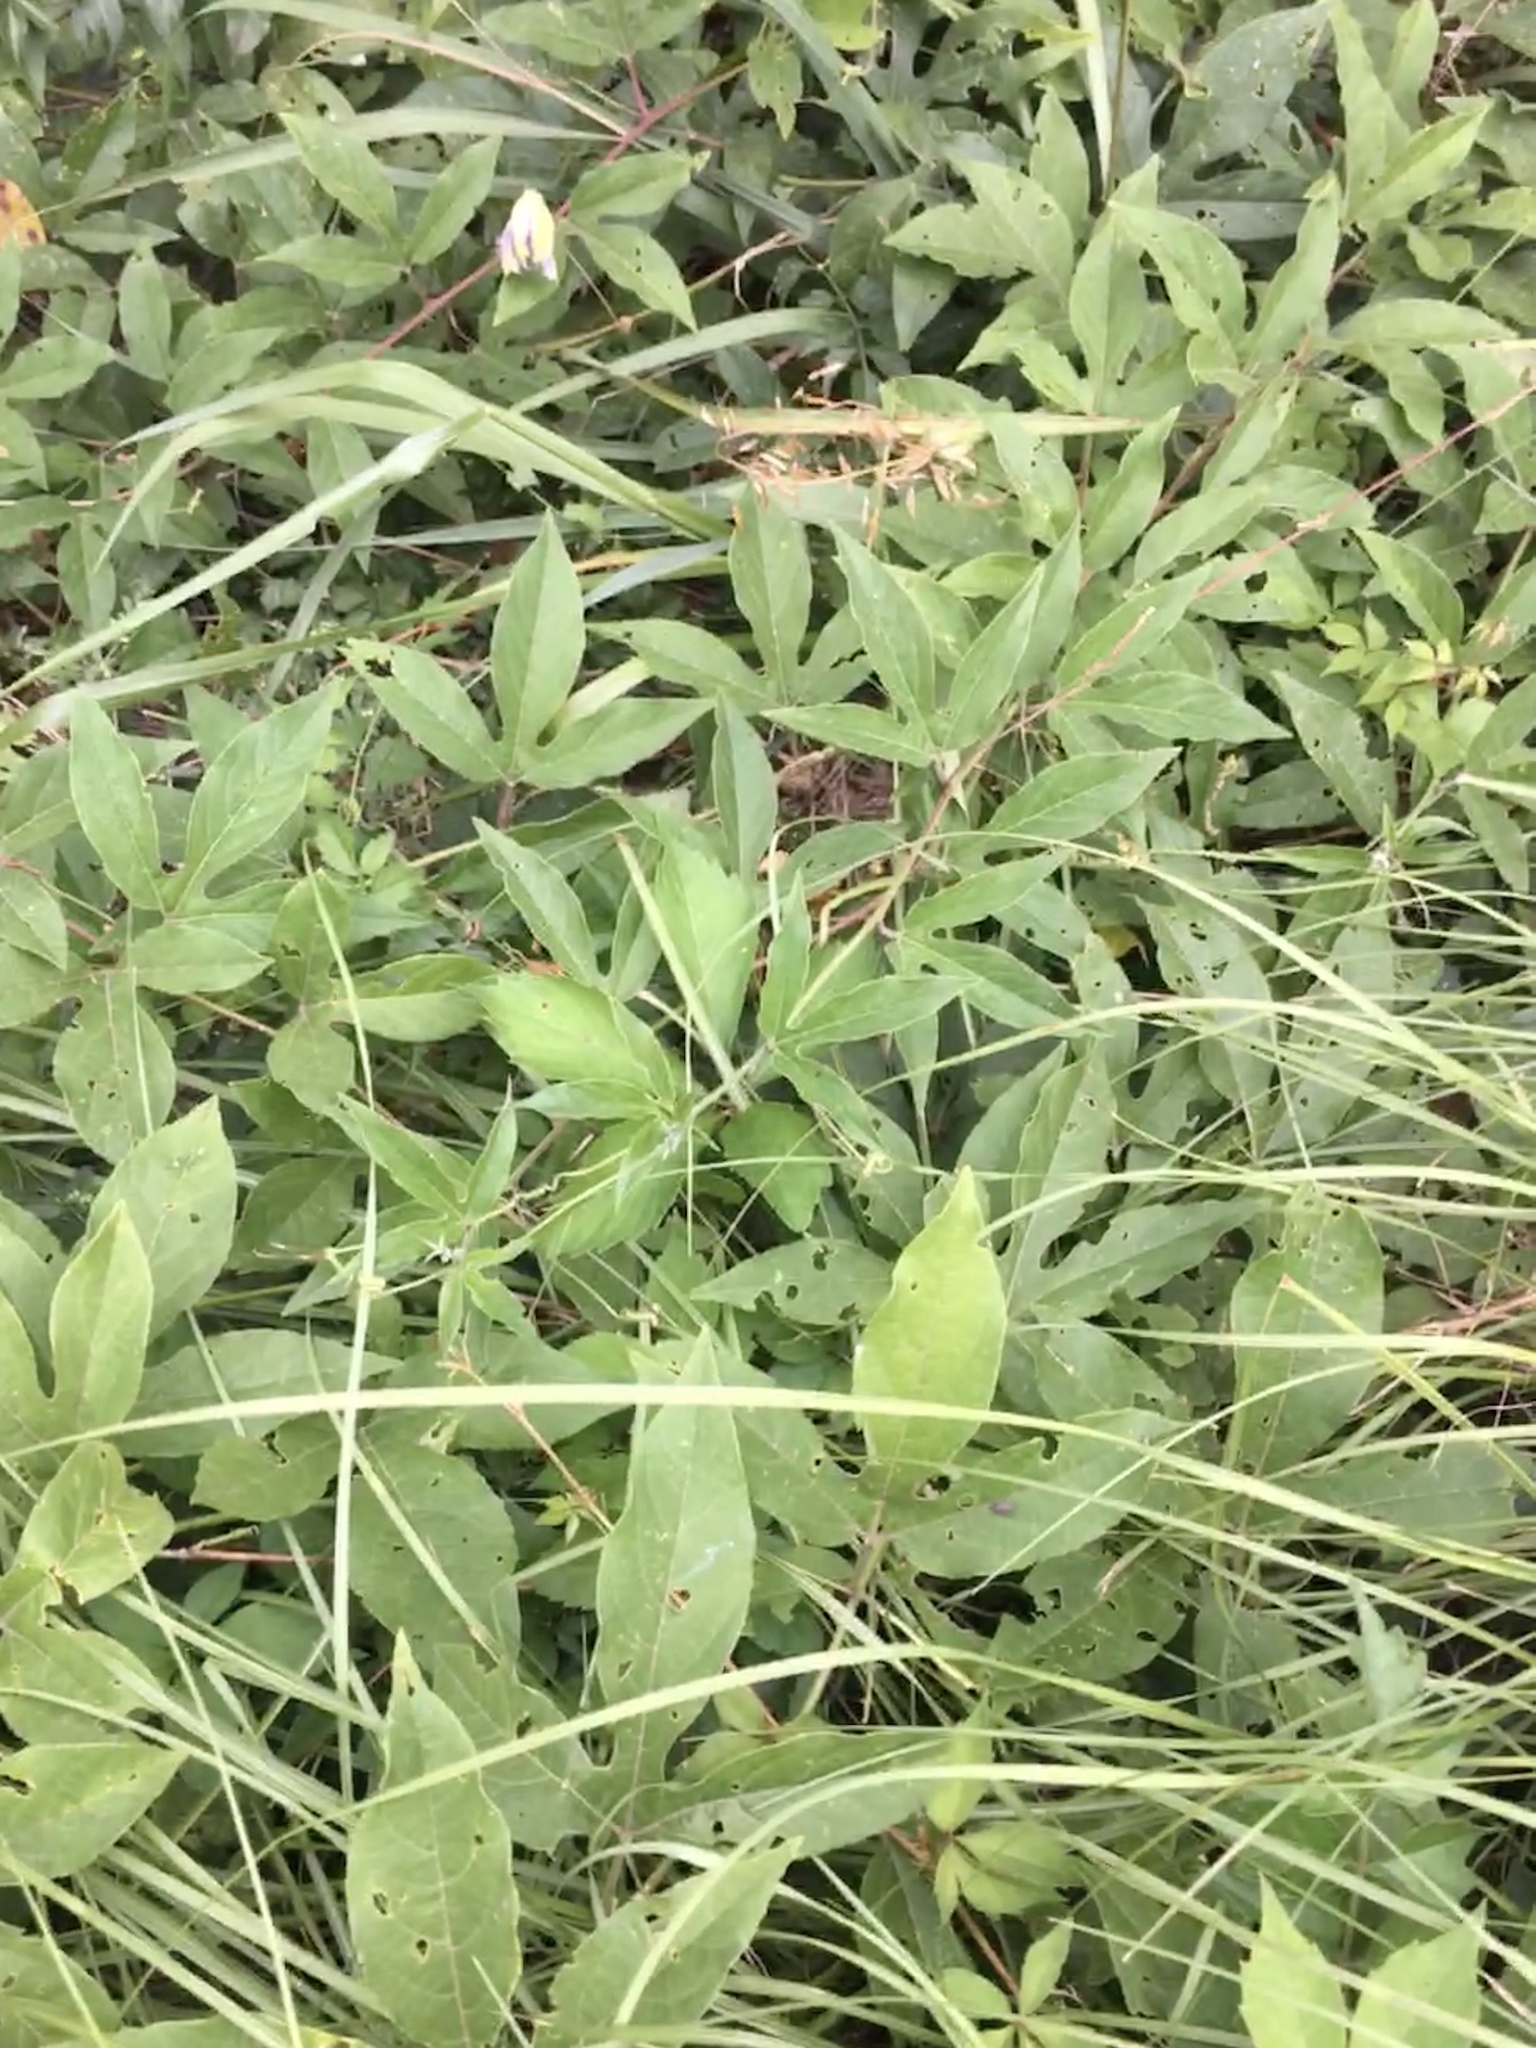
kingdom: Plantae
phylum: Tracheophyta
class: Magnoliopsida
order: Malpighiales
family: Passifloraceae
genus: Passiflora
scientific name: Passiflora incarnata
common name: Apricot-vine
